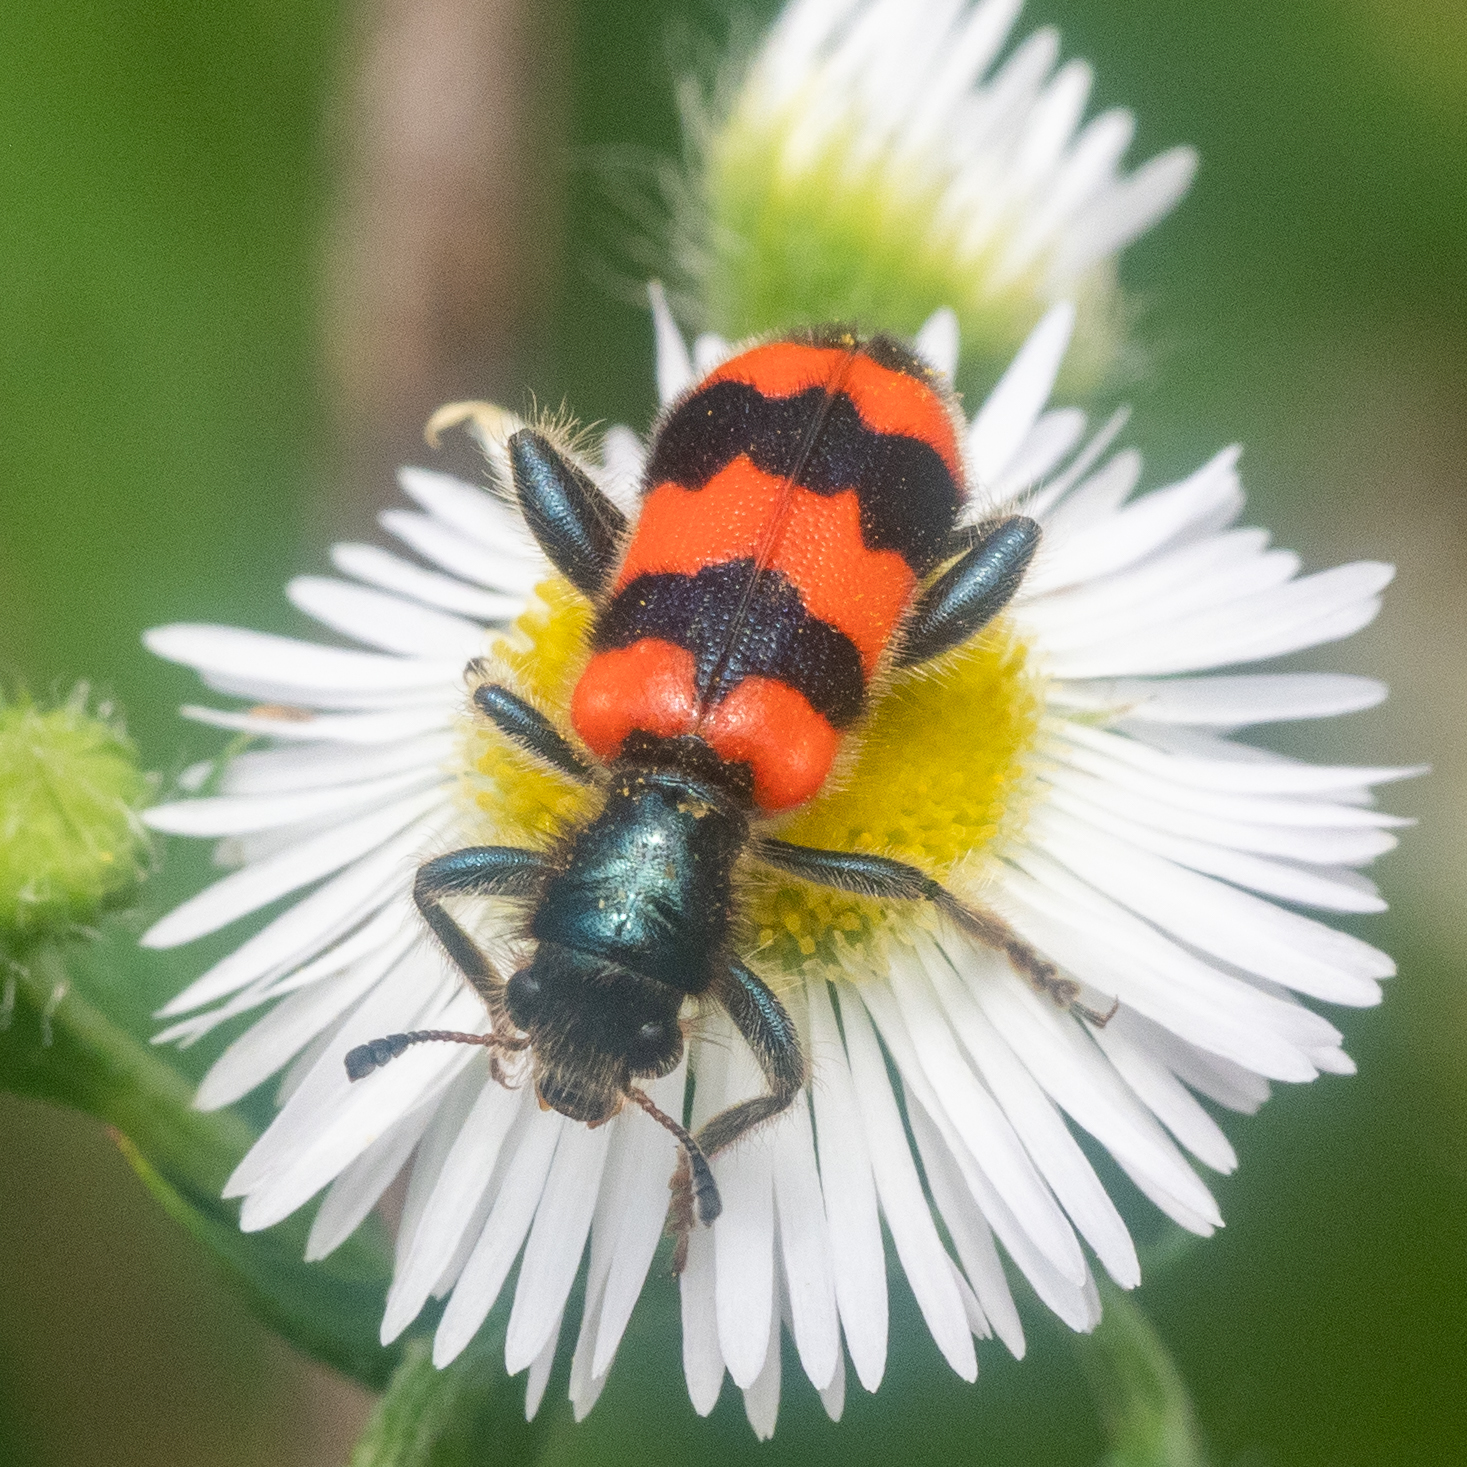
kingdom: Animalia
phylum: Arthropoda
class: Insecta
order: Coleoptera
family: Cleridae
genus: Trichodes
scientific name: Trichodes apiarius
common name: Bee-eating beetle
